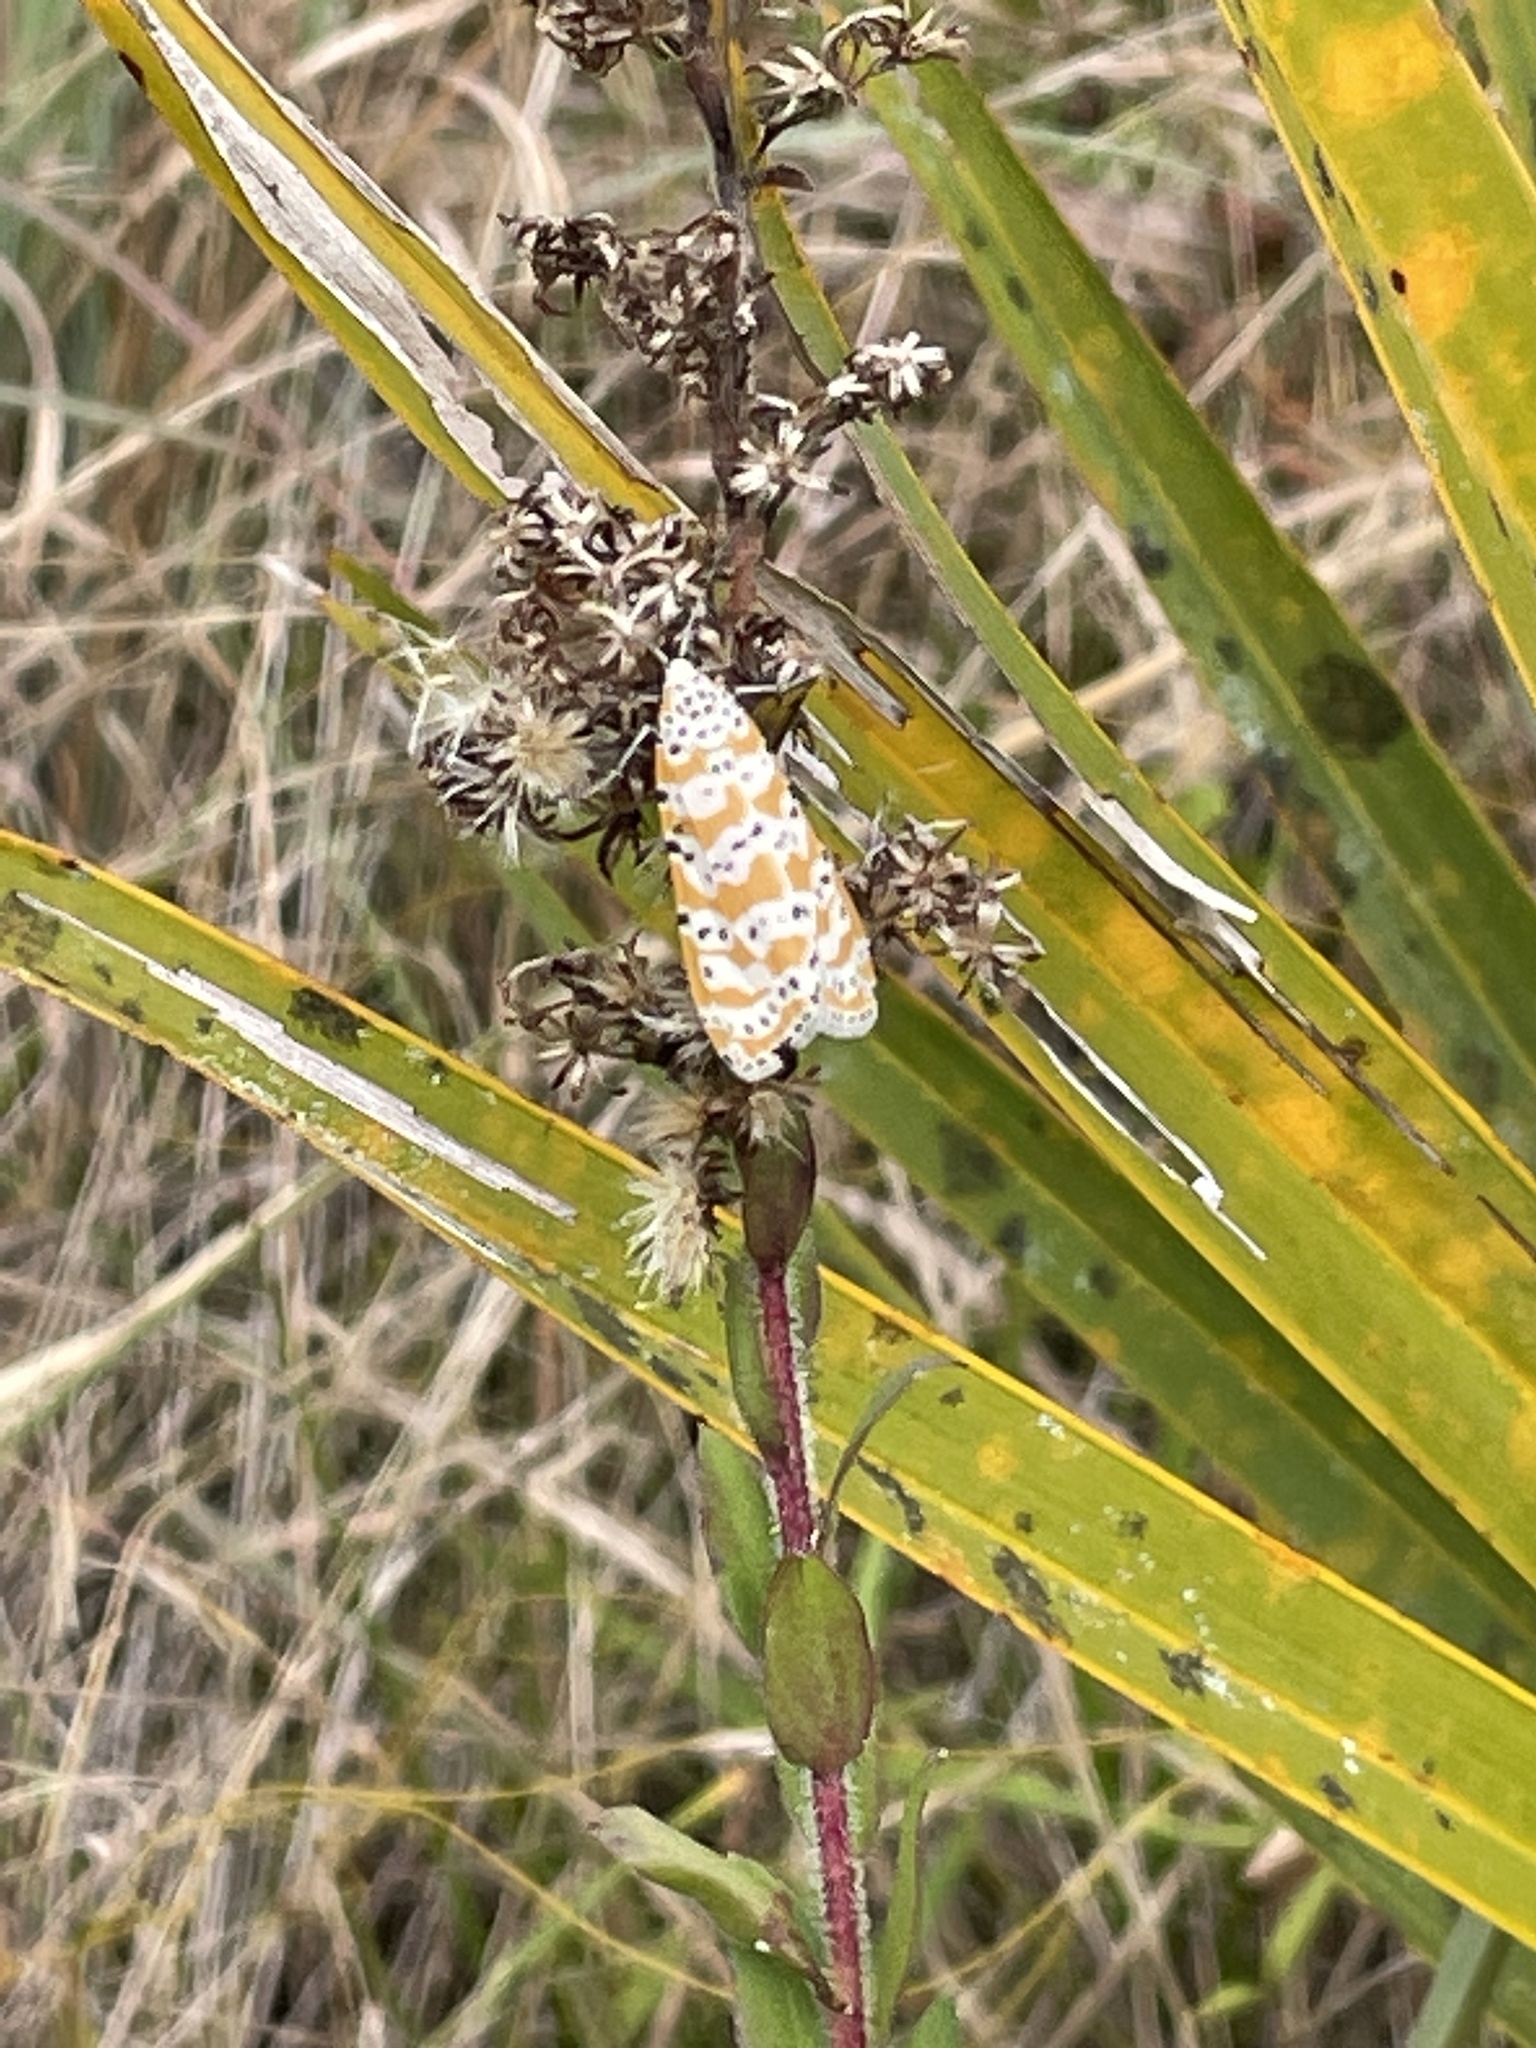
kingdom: Animalia
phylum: Arthropoda
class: Insecta
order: Lepidoptera
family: Erebidae
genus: Utetheisa
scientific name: Utetheisa ornatrix
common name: Beautiful utetheisa
